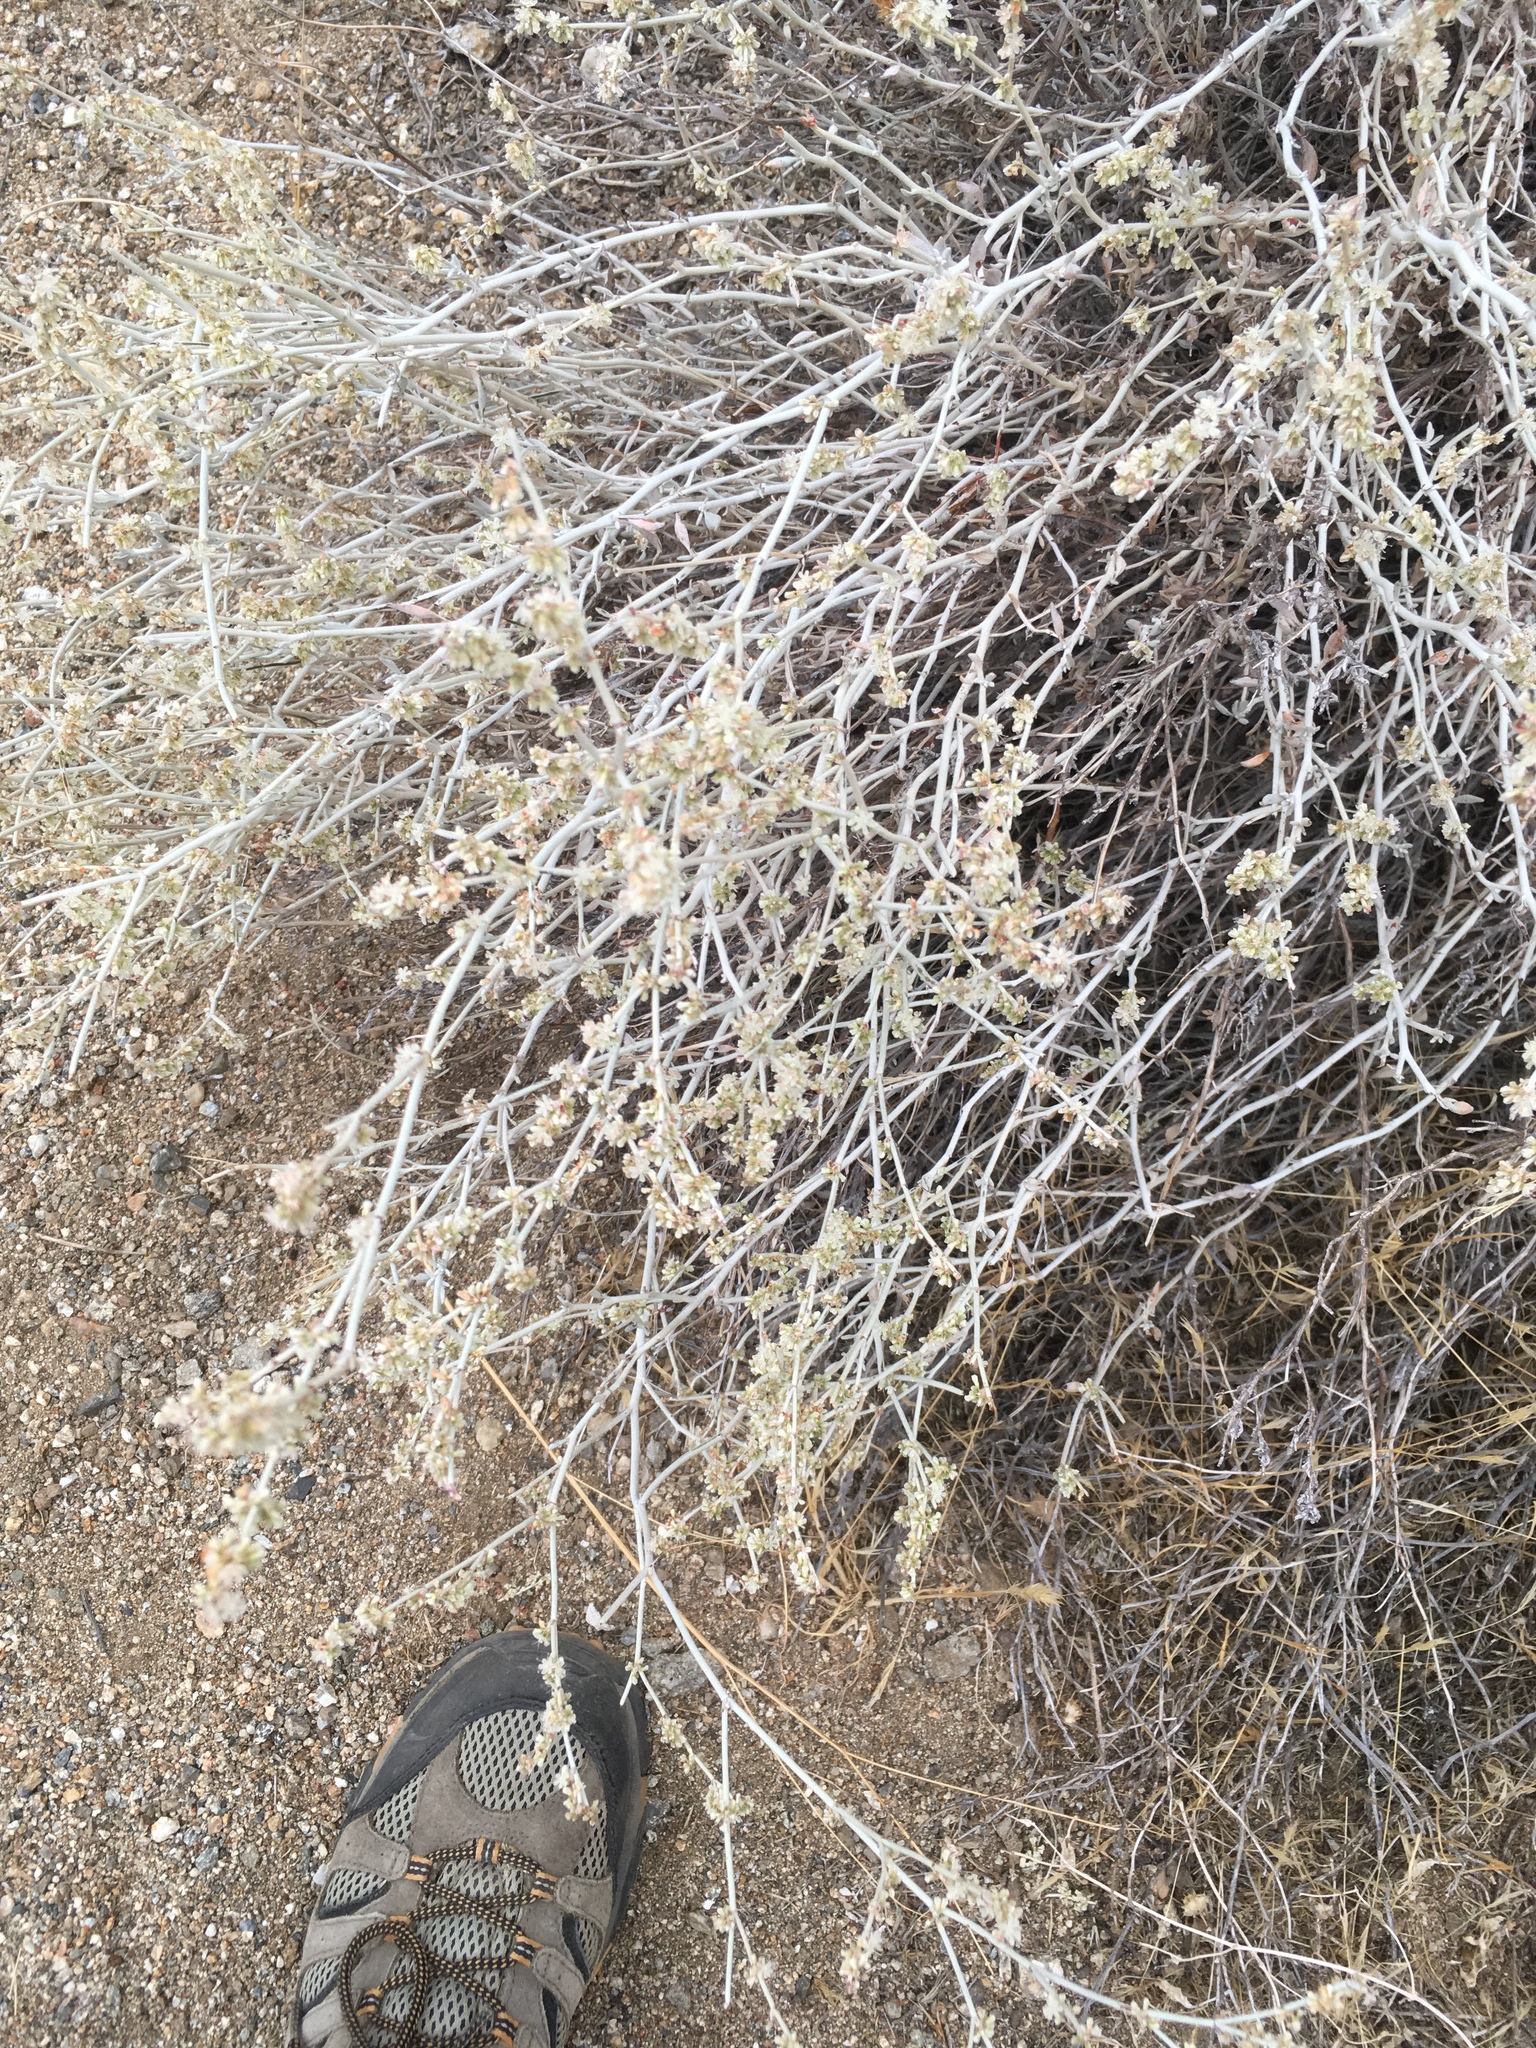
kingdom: Plantae
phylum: Tracheophyta
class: Magnoliopsida
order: Caryophyllales
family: Polygonaceae
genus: Eriogonum
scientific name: Eriogonum wrightii
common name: Bastard-sage
